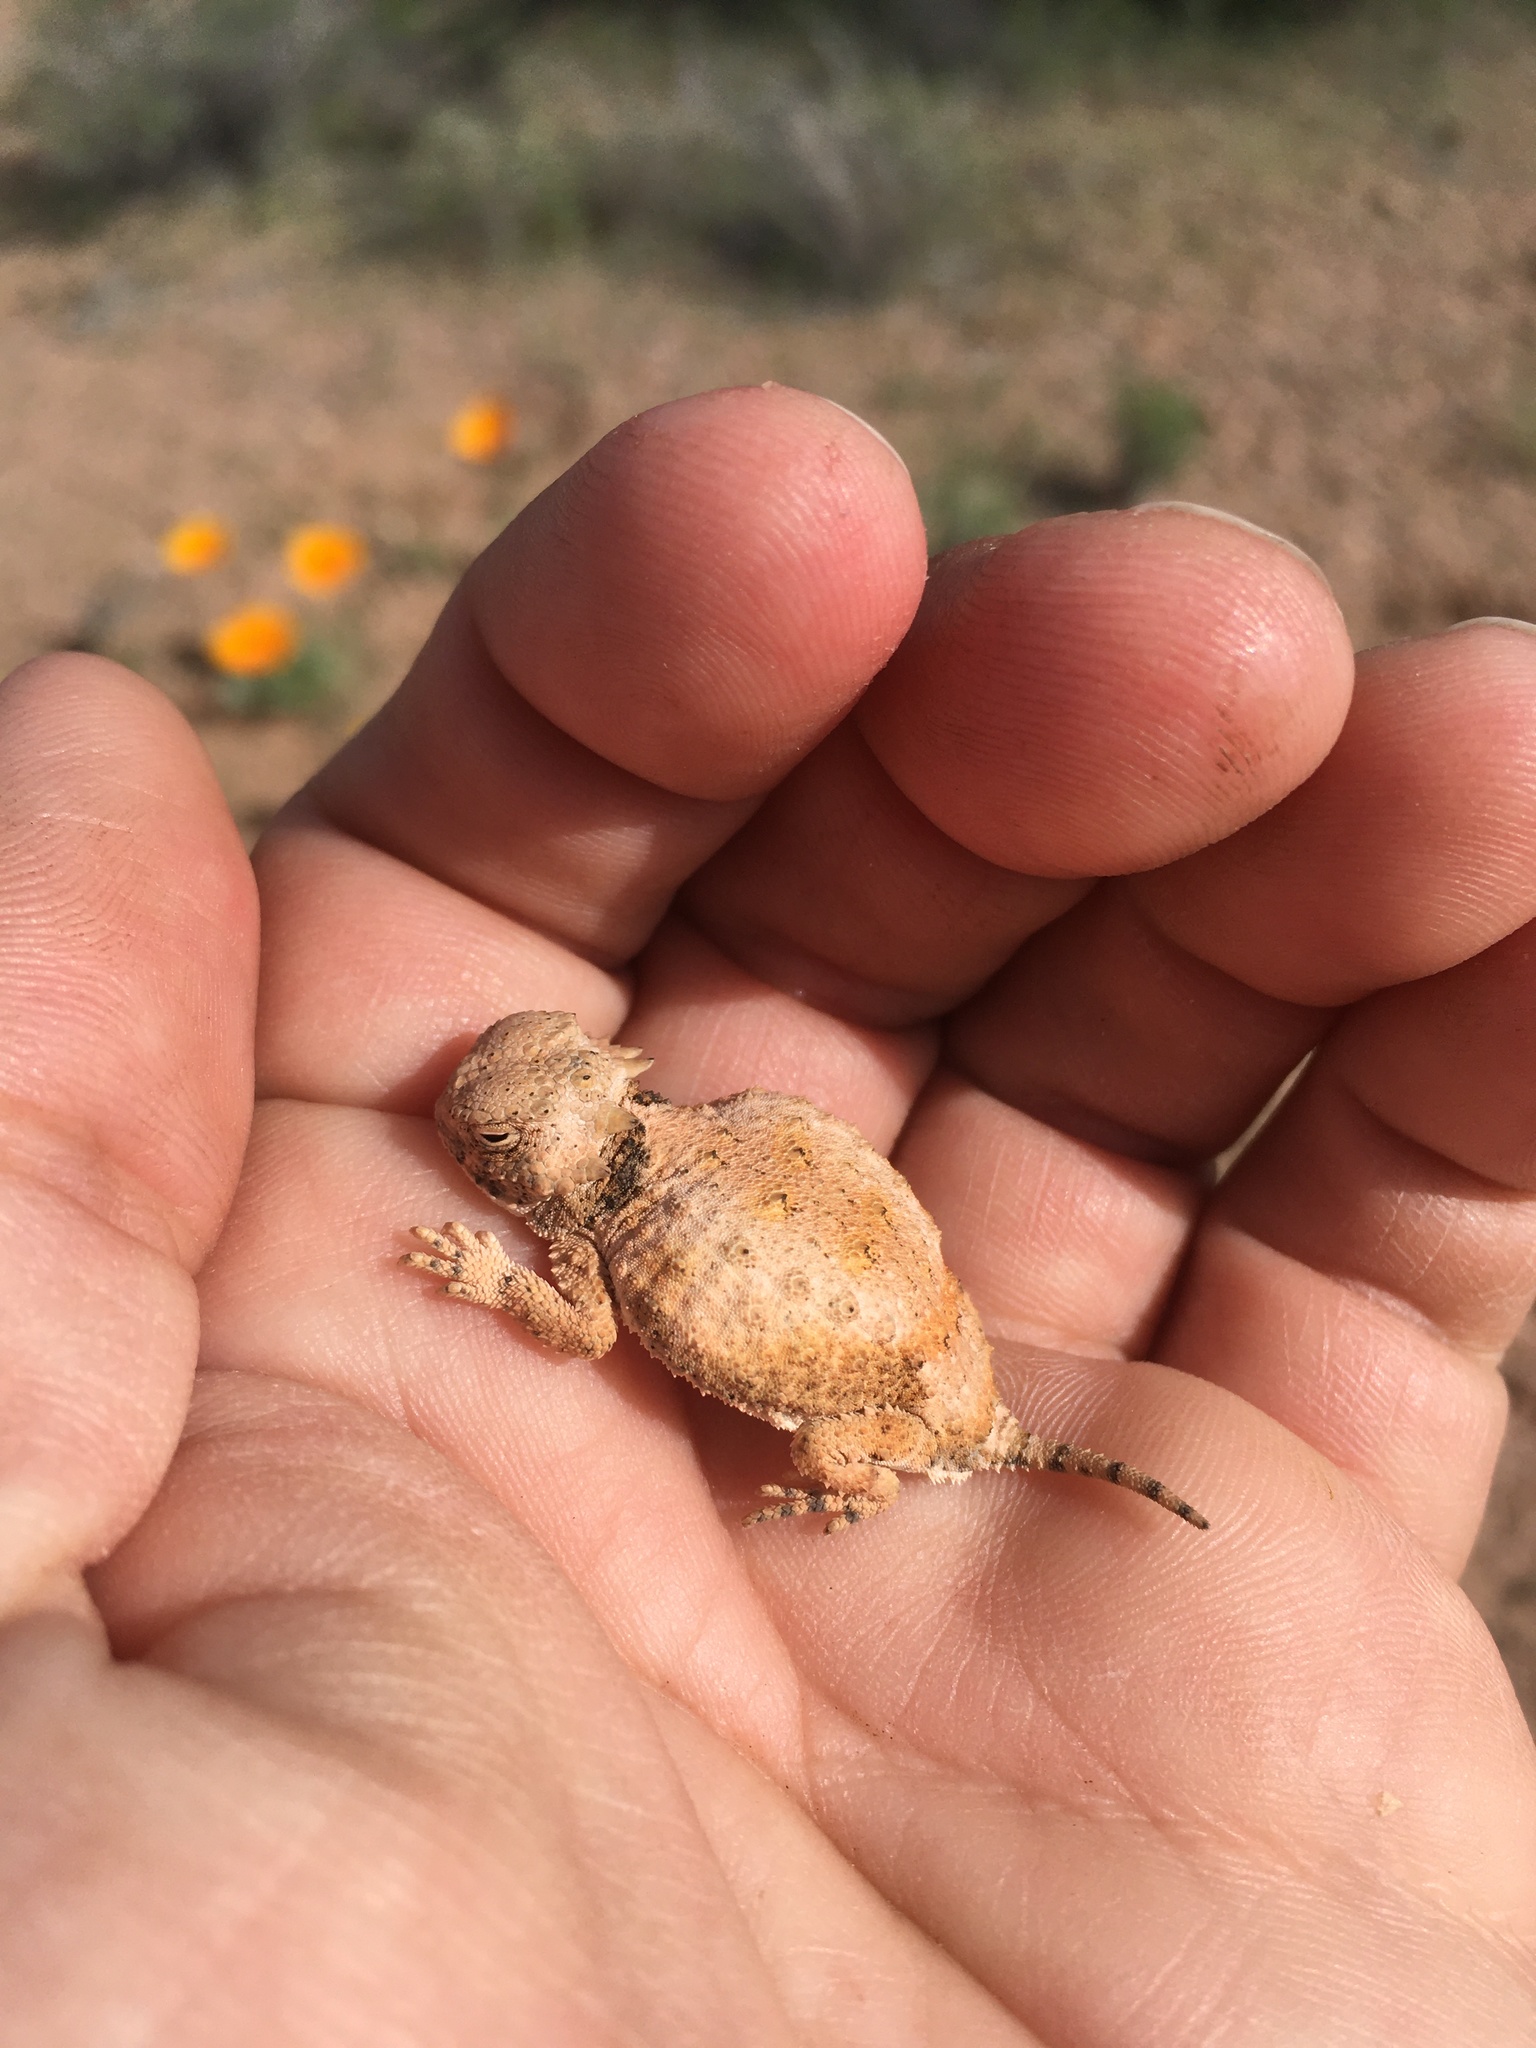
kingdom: Animalia
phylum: Chordata
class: Squamata
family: Phrynosomatidae
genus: Phrynosoma
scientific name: Phrynosoma modestum
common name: Roundtail horned lizard
